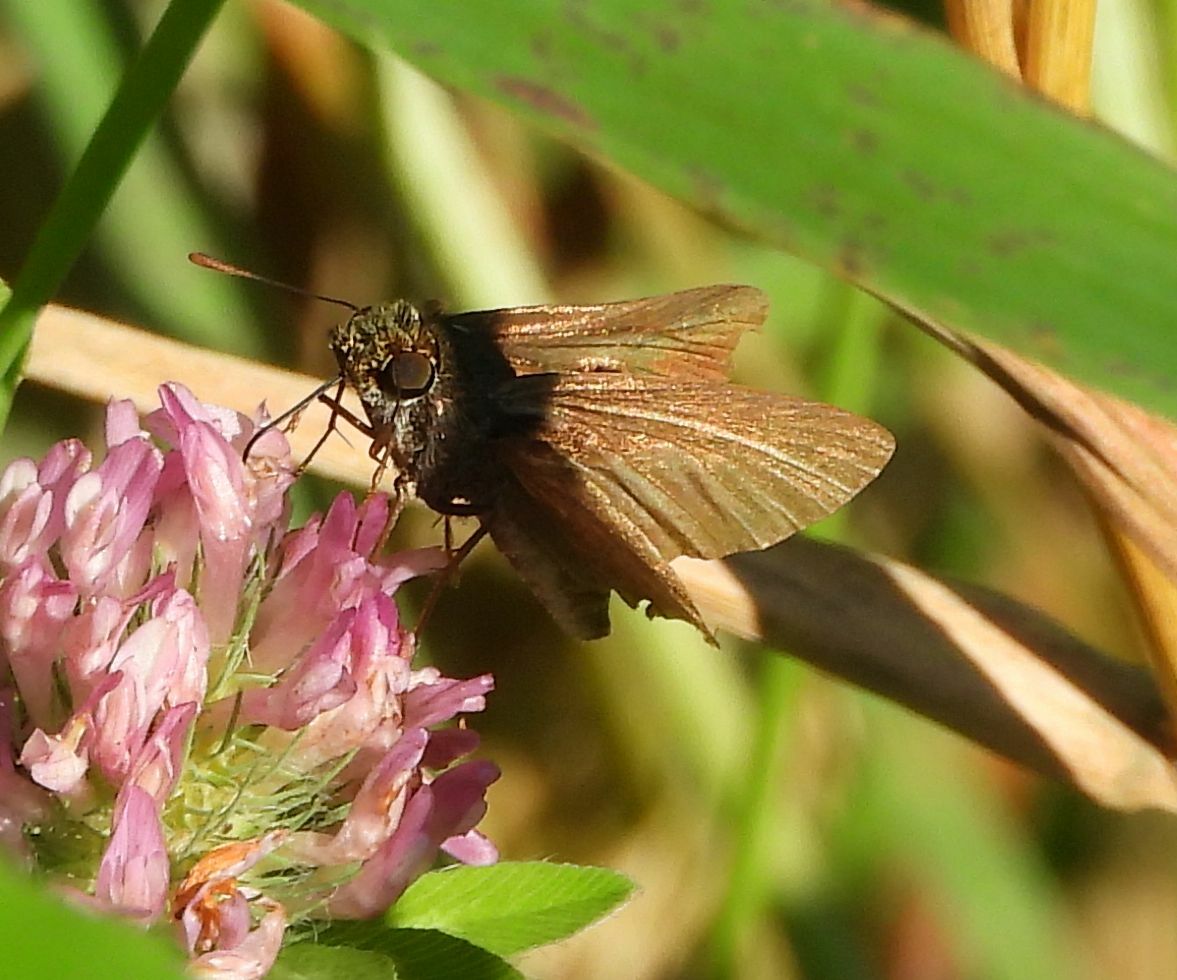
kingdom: Animalia
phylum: Arthropoda
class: Insecta
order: Lepidoptera
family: Hesperiidae
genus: Euphyes
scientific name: Euphyes vestris
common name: Dun skipper
